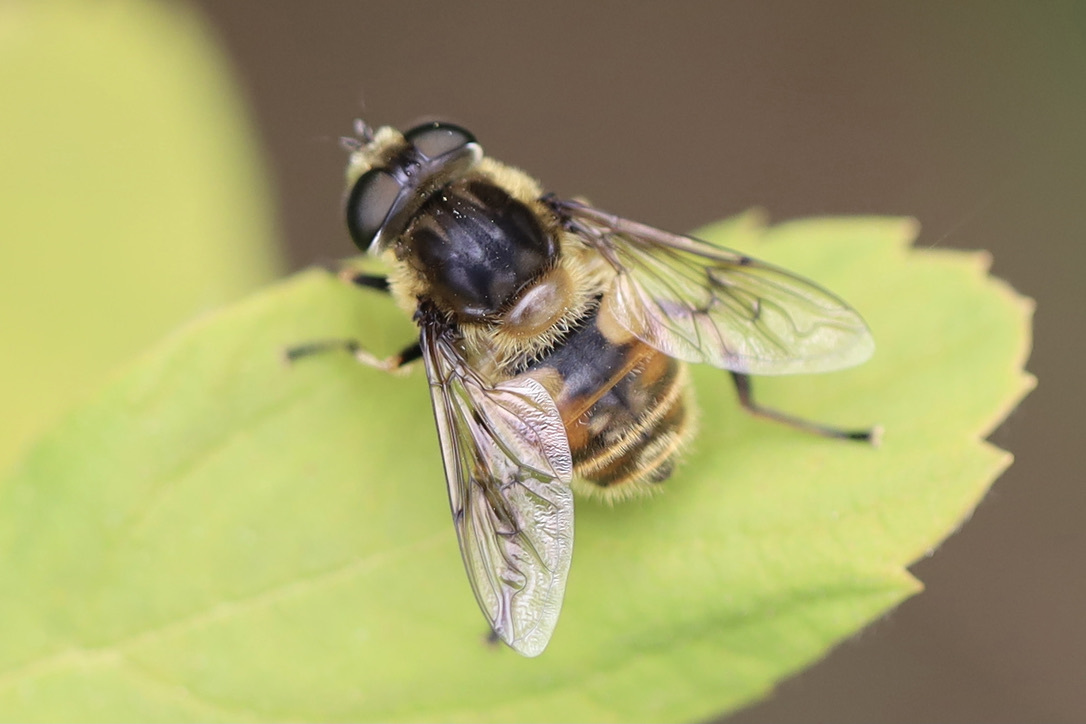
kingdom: Animalia
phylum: Arthropoda
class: Insecta
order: Diptera
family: Syrphidae
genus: Eristalis
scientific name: Eristalis anthophorina
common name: Orange-spotted drone fly
